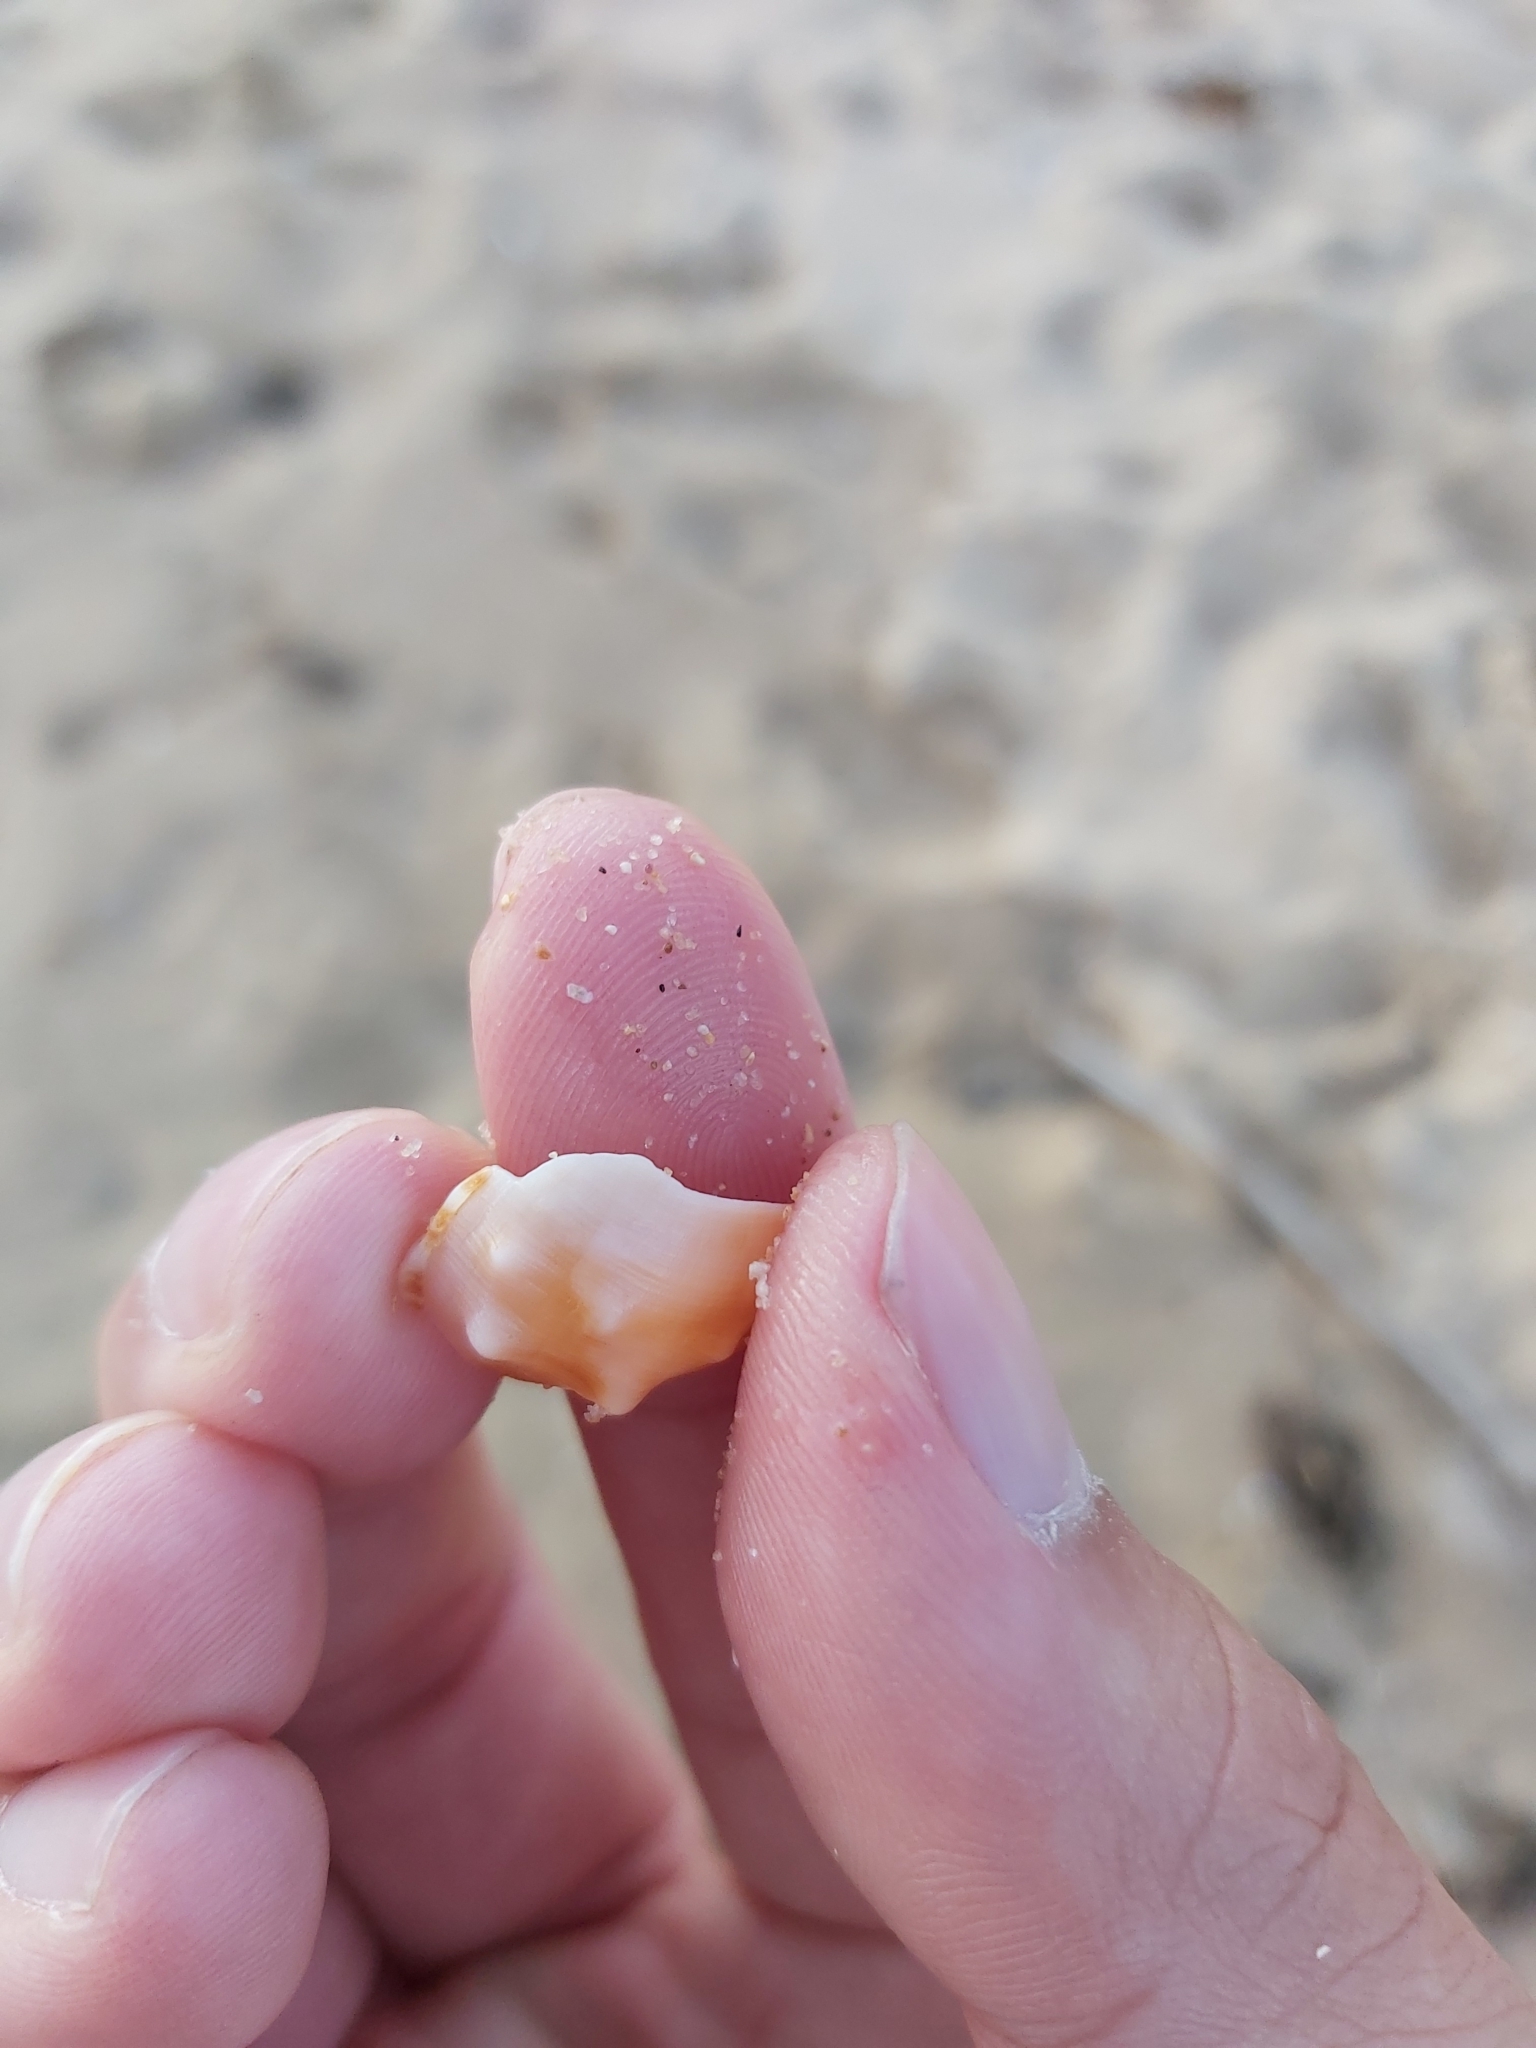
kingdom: Animalia
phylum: Mollusca
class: Gastropoda
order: Littorinimorpha
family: Charoniidae
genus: Charonia
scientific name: Charonia lampas
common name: Knobbed triton
